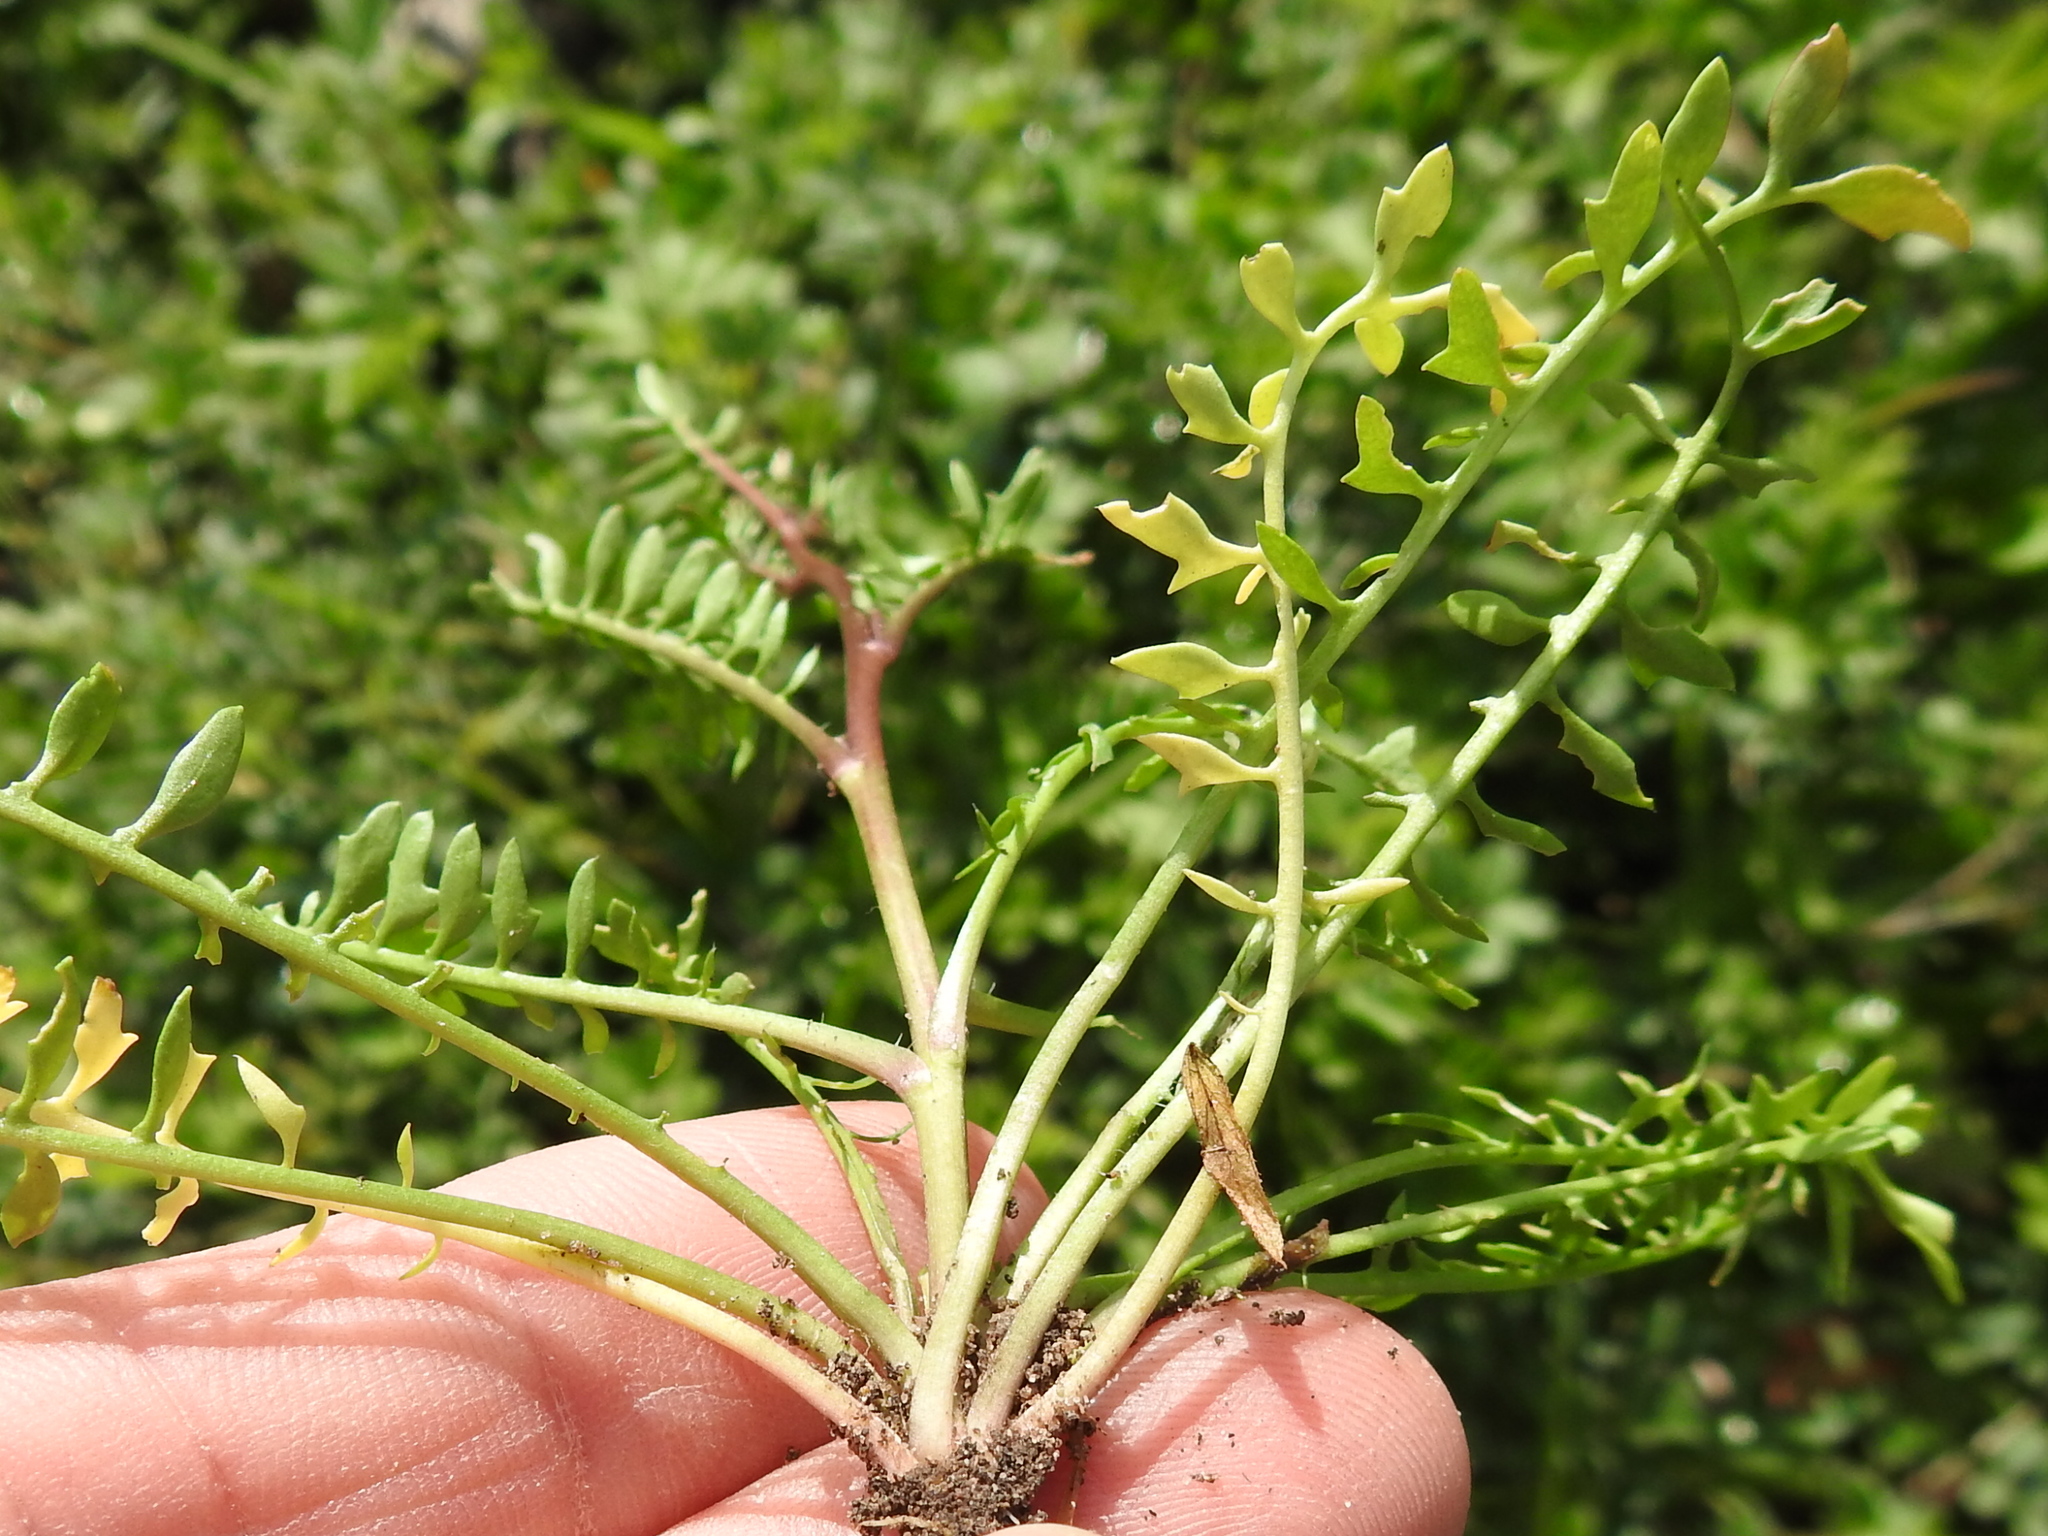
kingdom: Plantae
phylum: Tracheophyta
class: Magnoliopsida
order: Brassicales
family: Brassicaceae
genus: Cardamine
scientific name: Cardamine hirsuta
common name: Hairy bittercress
